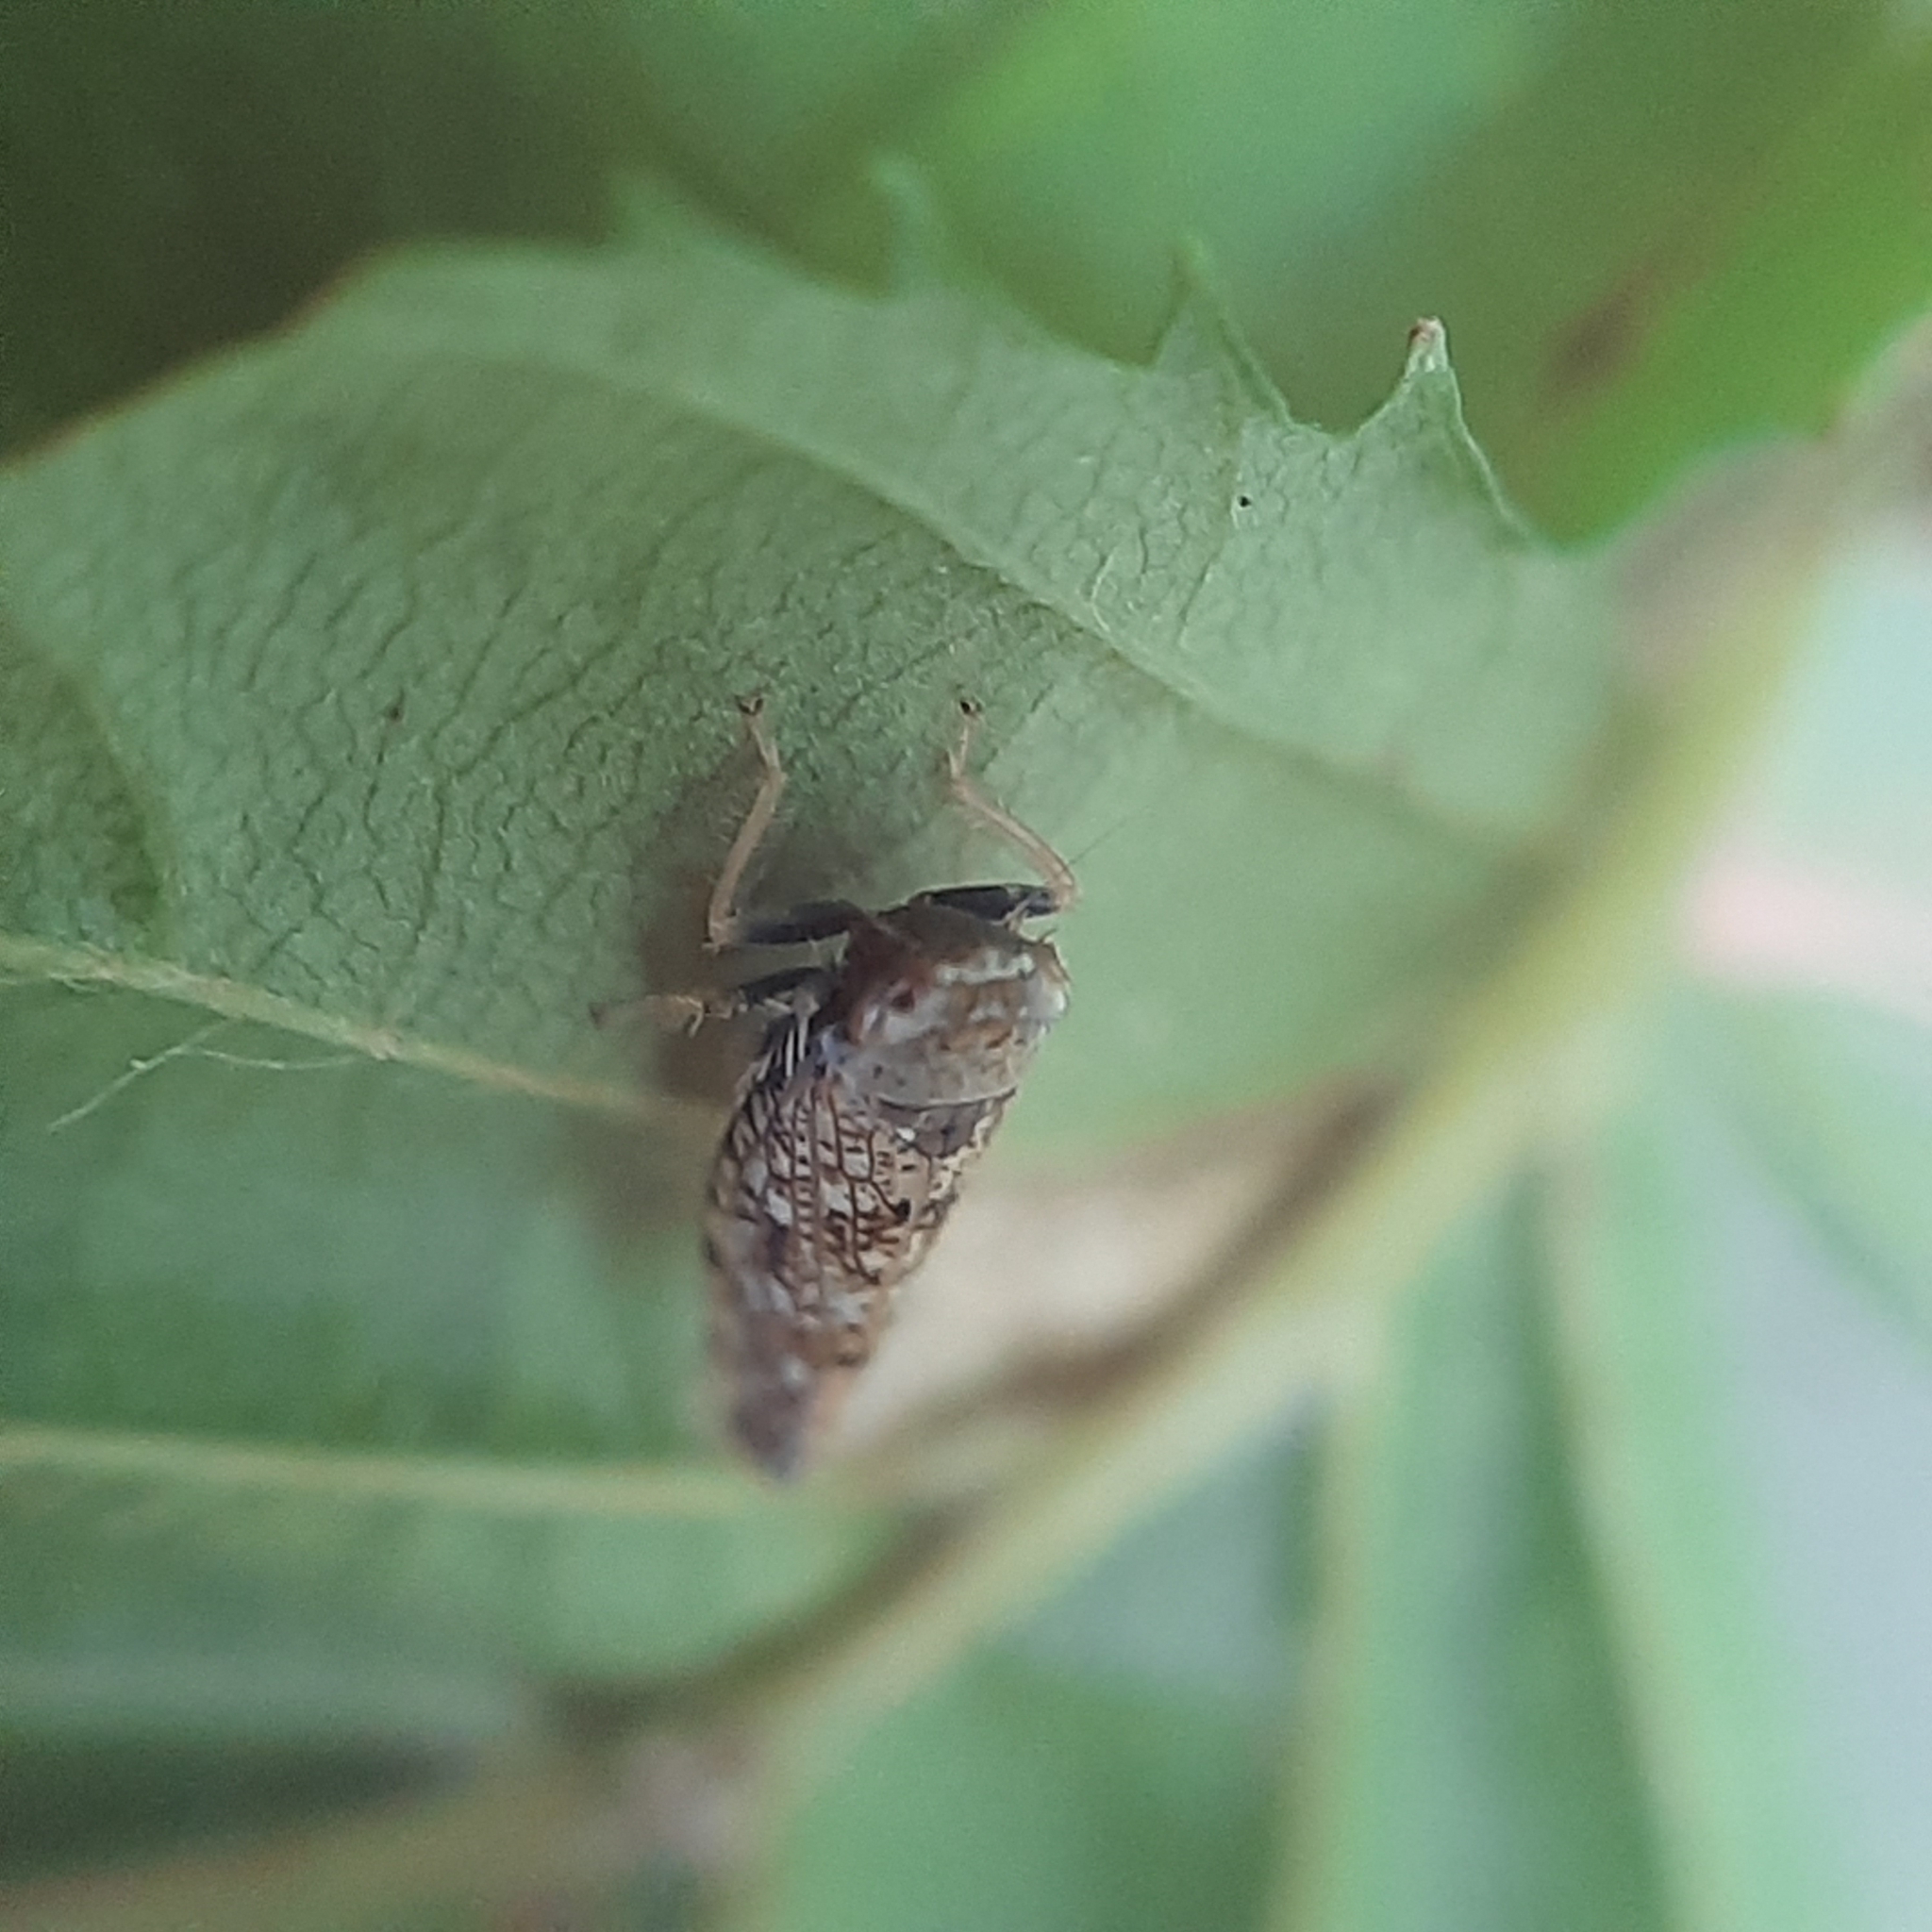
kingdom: Animalia
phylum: Arthropoda
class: Insecta
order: Hemiptera
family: Cicadellidae
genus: Orientus
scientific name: Orientus ishidae
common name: Japanese leafhopper
